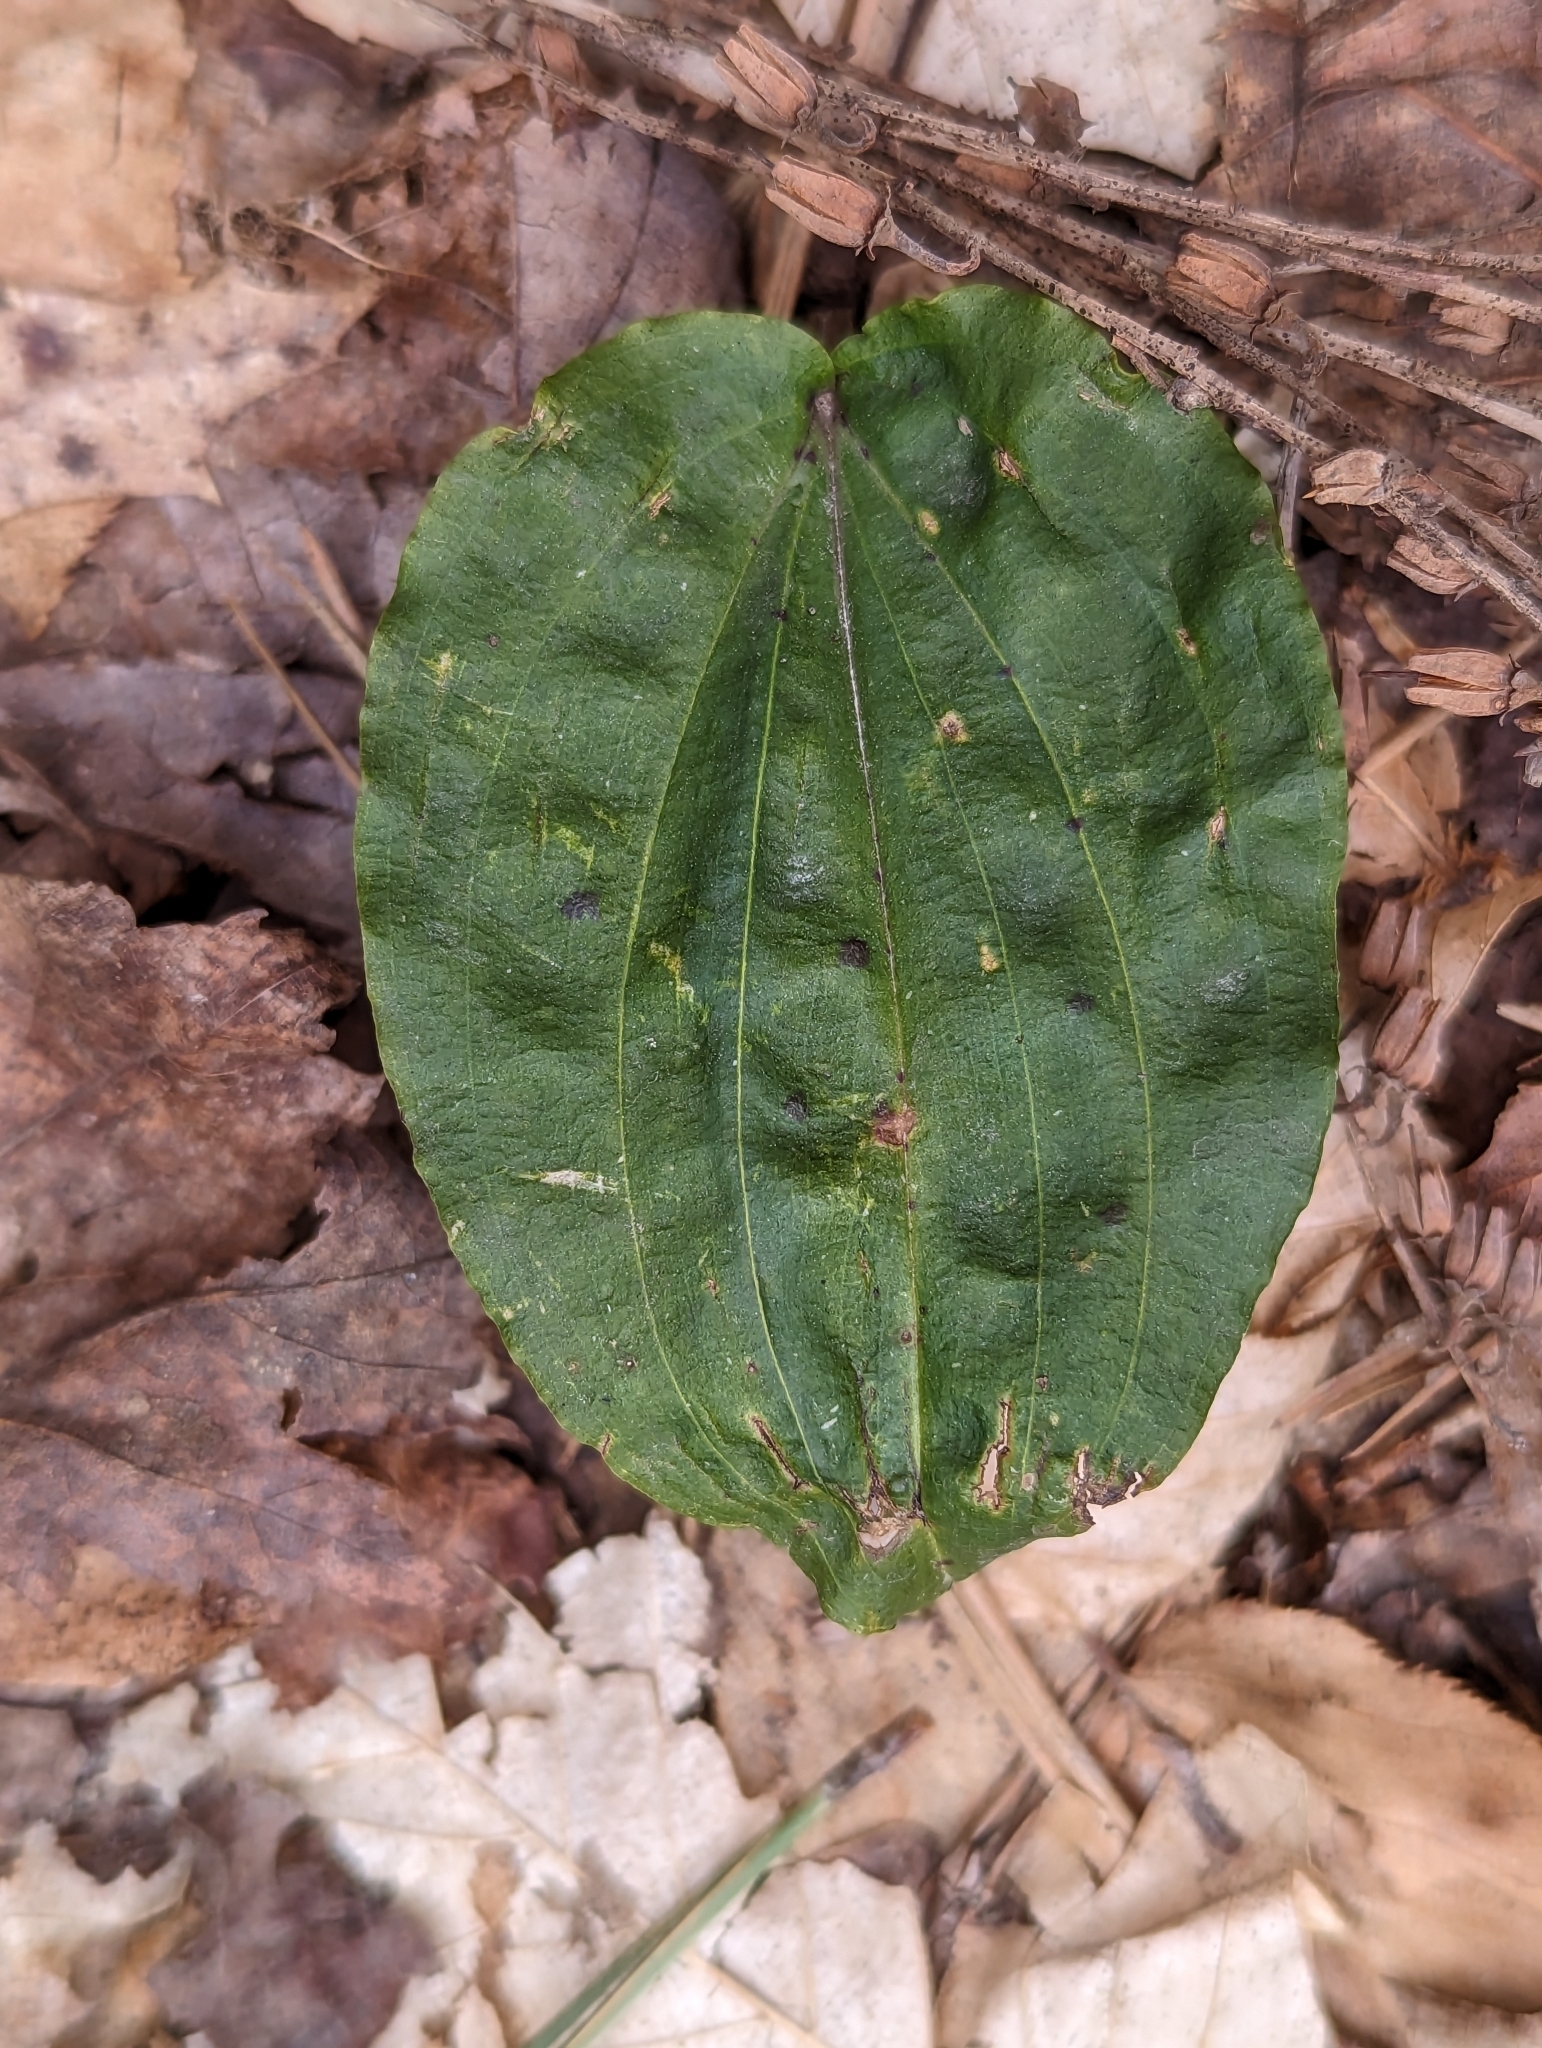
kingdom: Plantae
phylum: Tracheophyta
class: Liliopsida
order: Asparagales
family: Orchidaceae
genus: Tipularia
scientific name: Tipularia discolor
